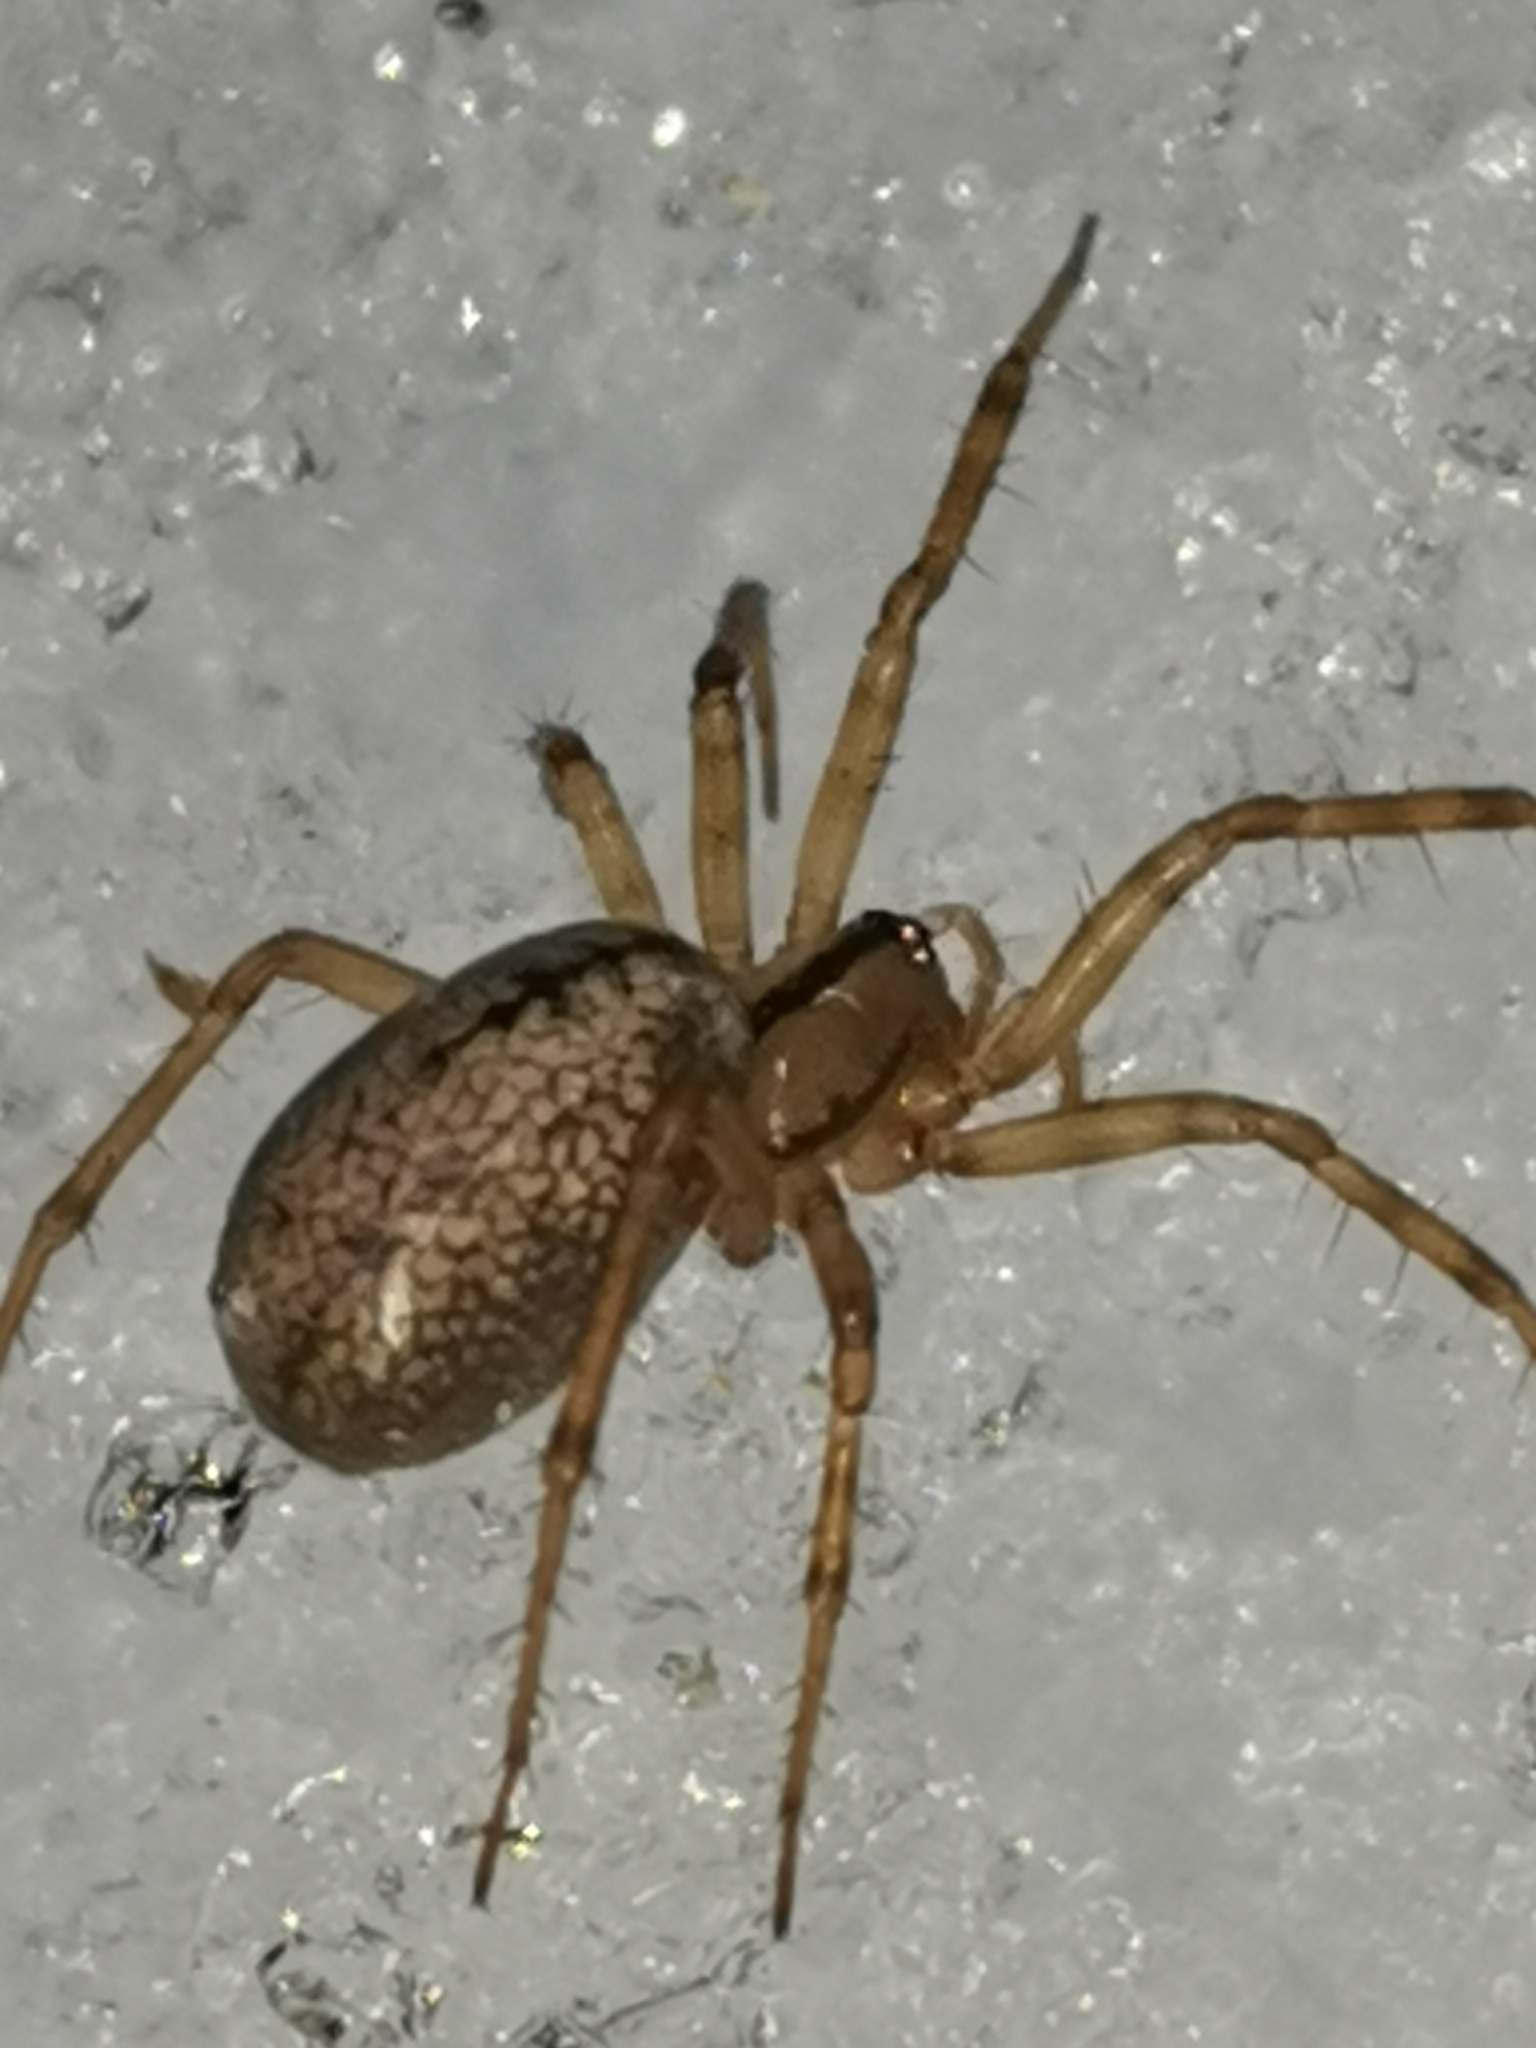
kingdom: Animalia
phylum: Arthropoda
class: Arachnida
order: Araneae
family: Linyphiidae
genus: Stemonyphantes
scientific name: Stemonyphantes lineatus
